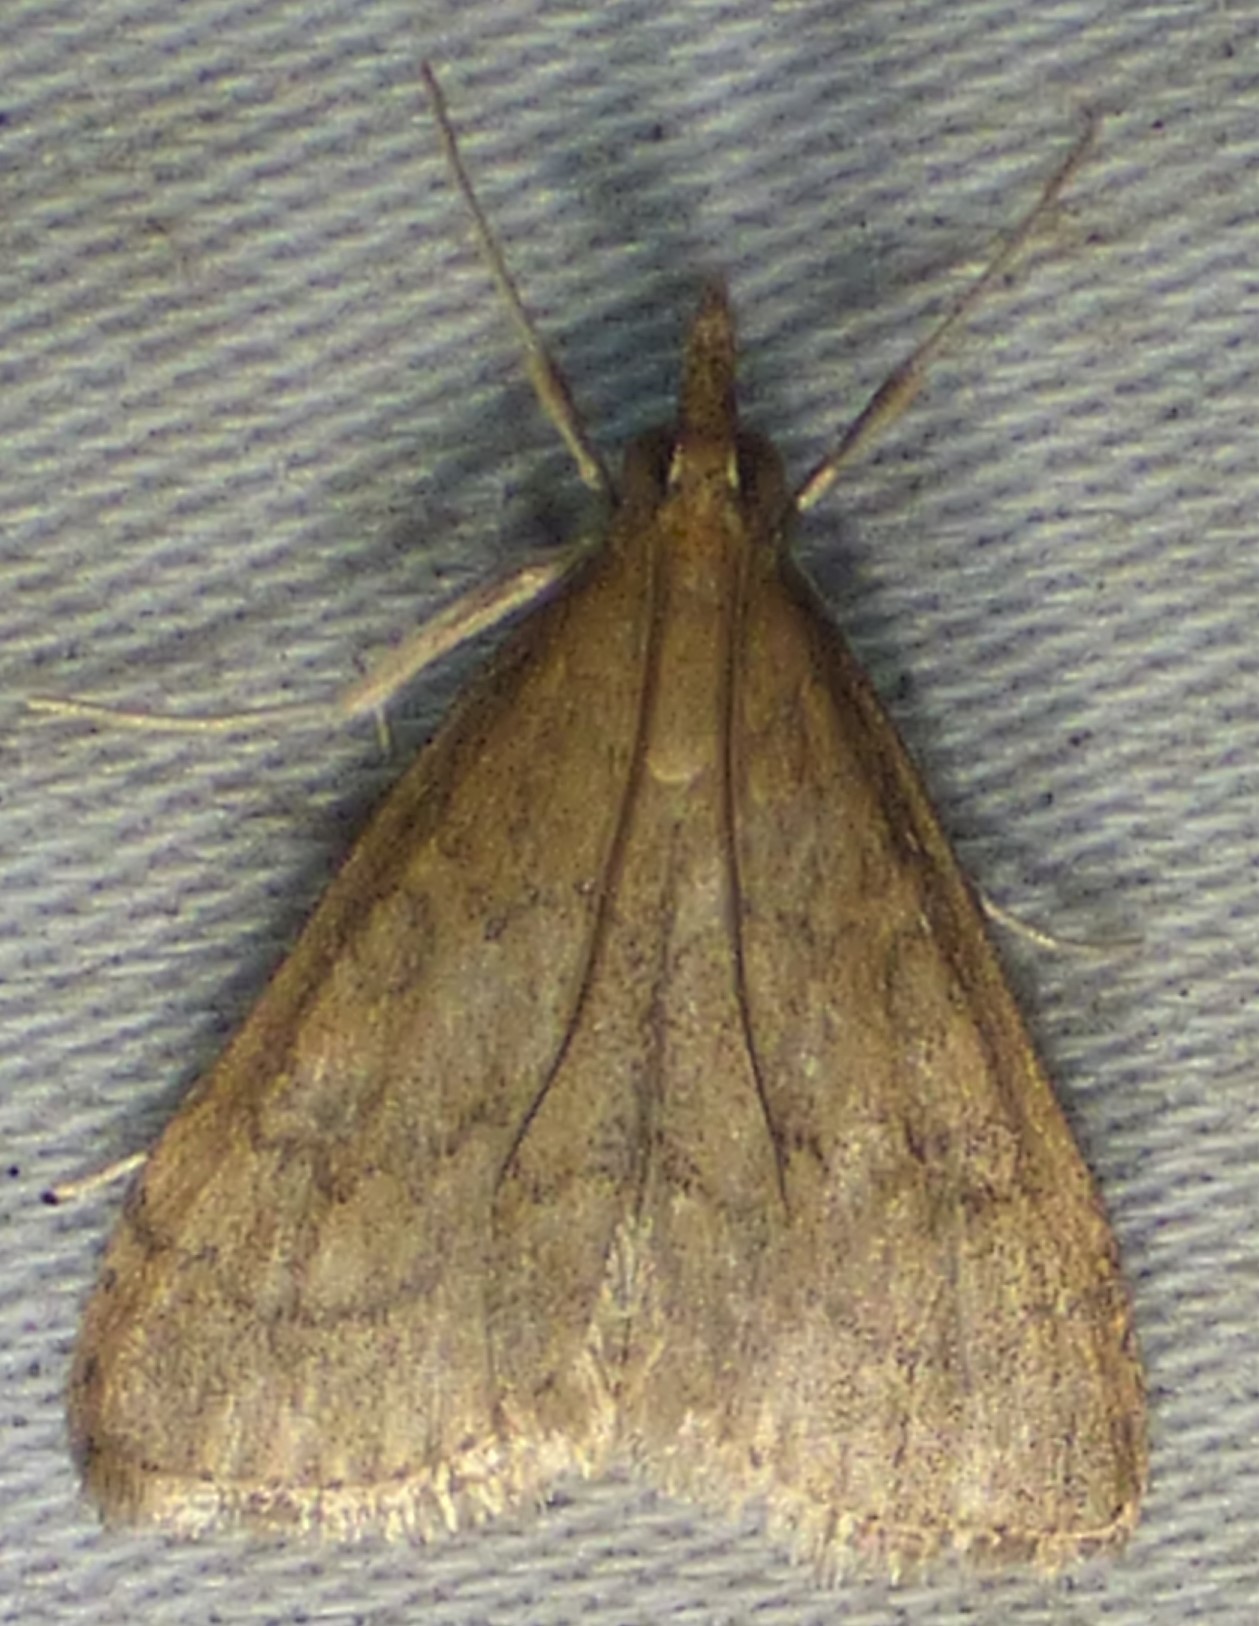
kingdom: Animalia
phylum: Arthropoda
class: Insecta
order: Lepidoptera
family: Crambidae
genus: Udea
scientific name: Udea rubigalis
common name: Celery leaftier moth
